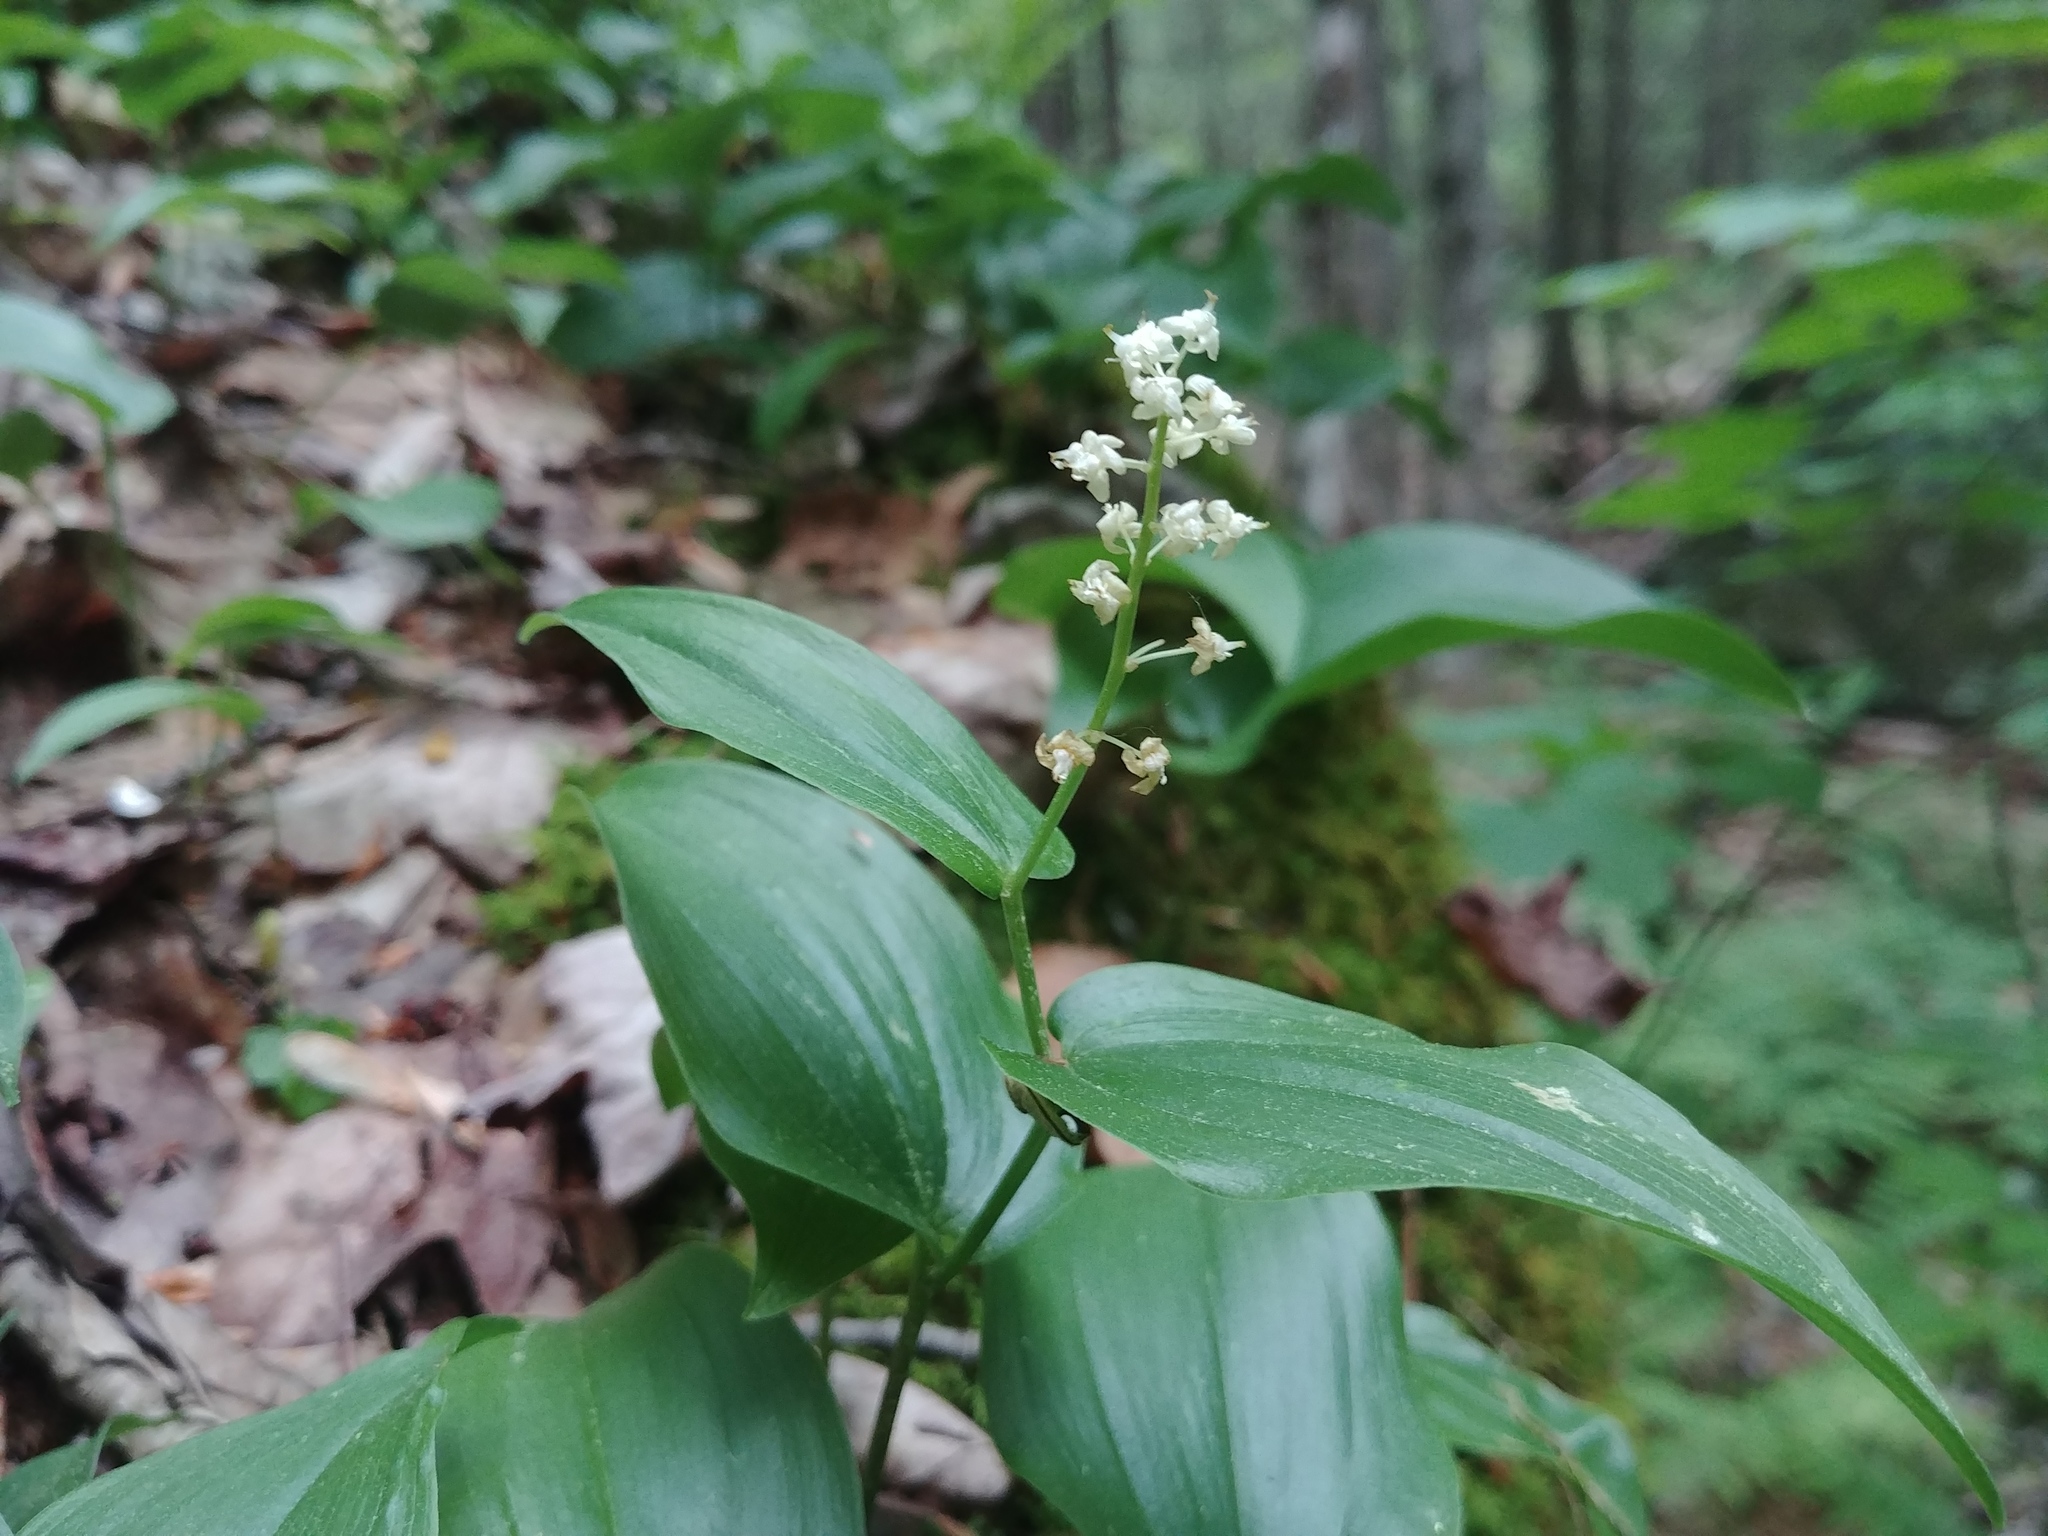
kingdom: Plantae
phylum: Tracheophyta
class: Liliopsida
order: Asparagales
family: Asparagaceae
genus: Maianthemum
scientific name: Maianthemum canadense
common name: False lily-of-the-valley
